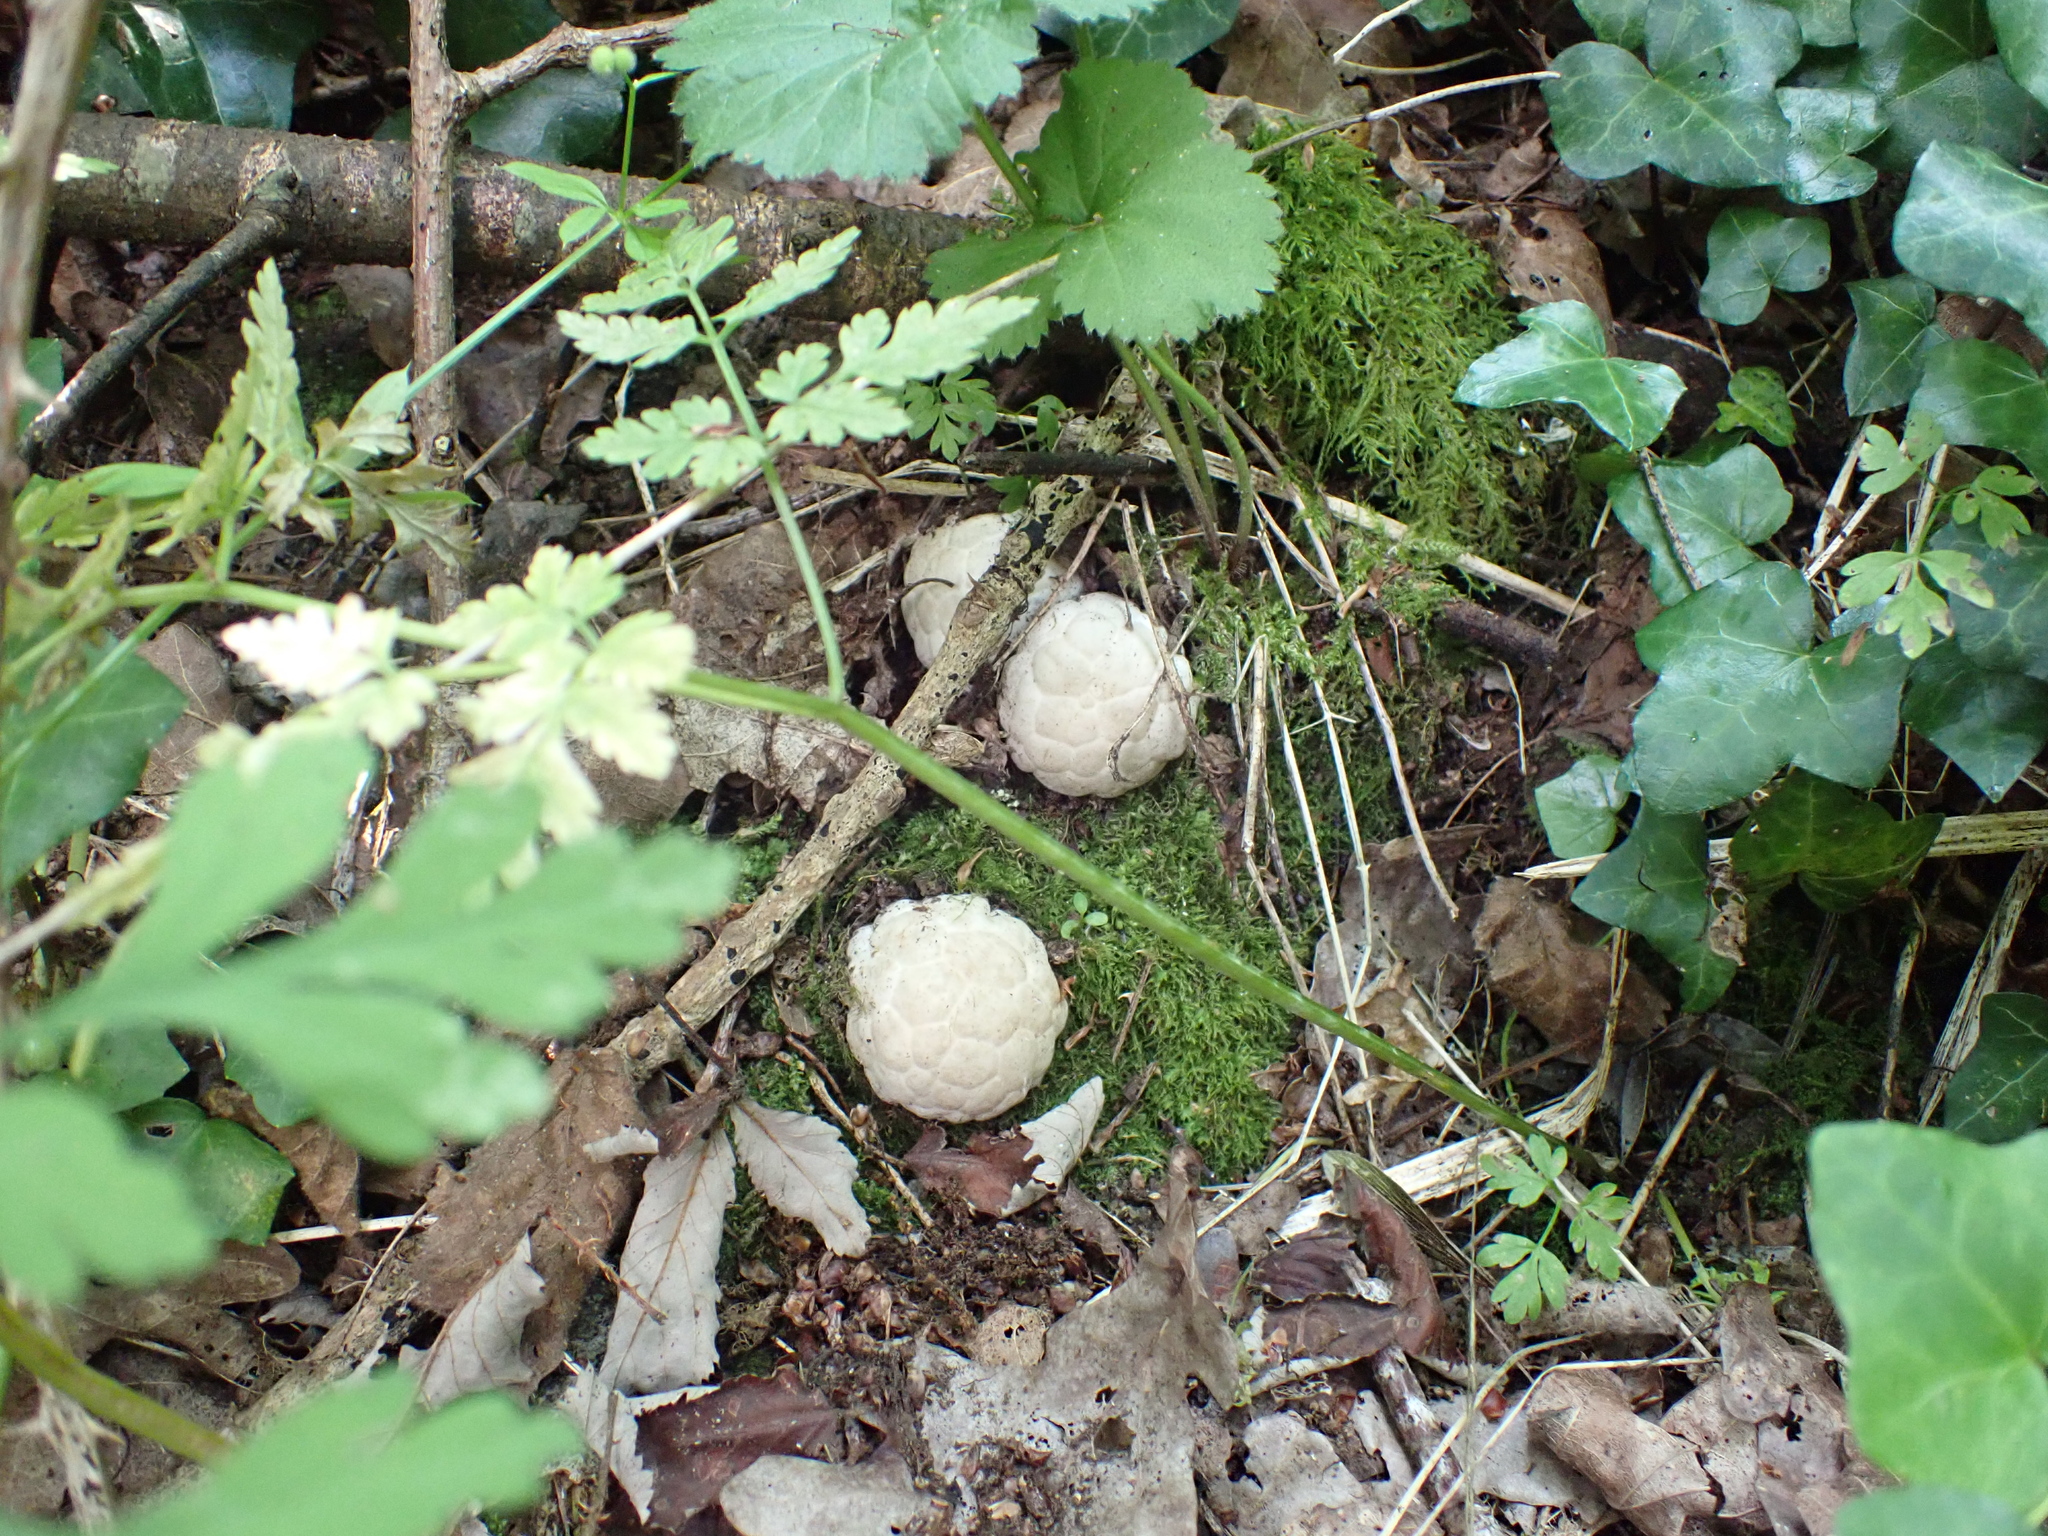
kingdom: Fungi
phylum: Basidiomycota
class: Agaricomycetes
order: Phallales
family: Phallaceae
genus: Clathrus
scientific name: Clathrus ruber
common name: Red cage
